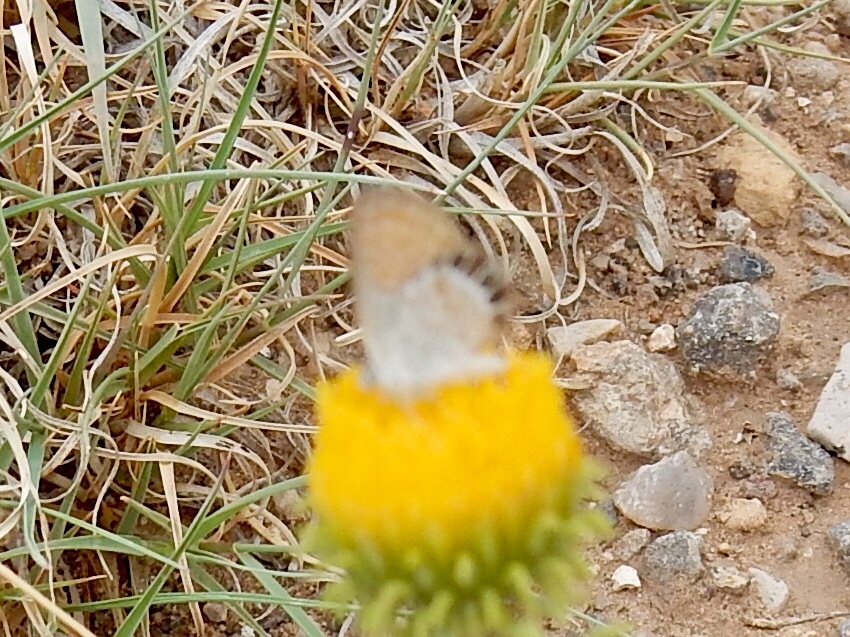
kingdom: Animalia
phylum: Arthropoda
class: Insecta
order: Lepidoptera
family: Lycaenidae
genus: Brephidium
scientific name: Brephidium exilis
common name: Pygmy blue
